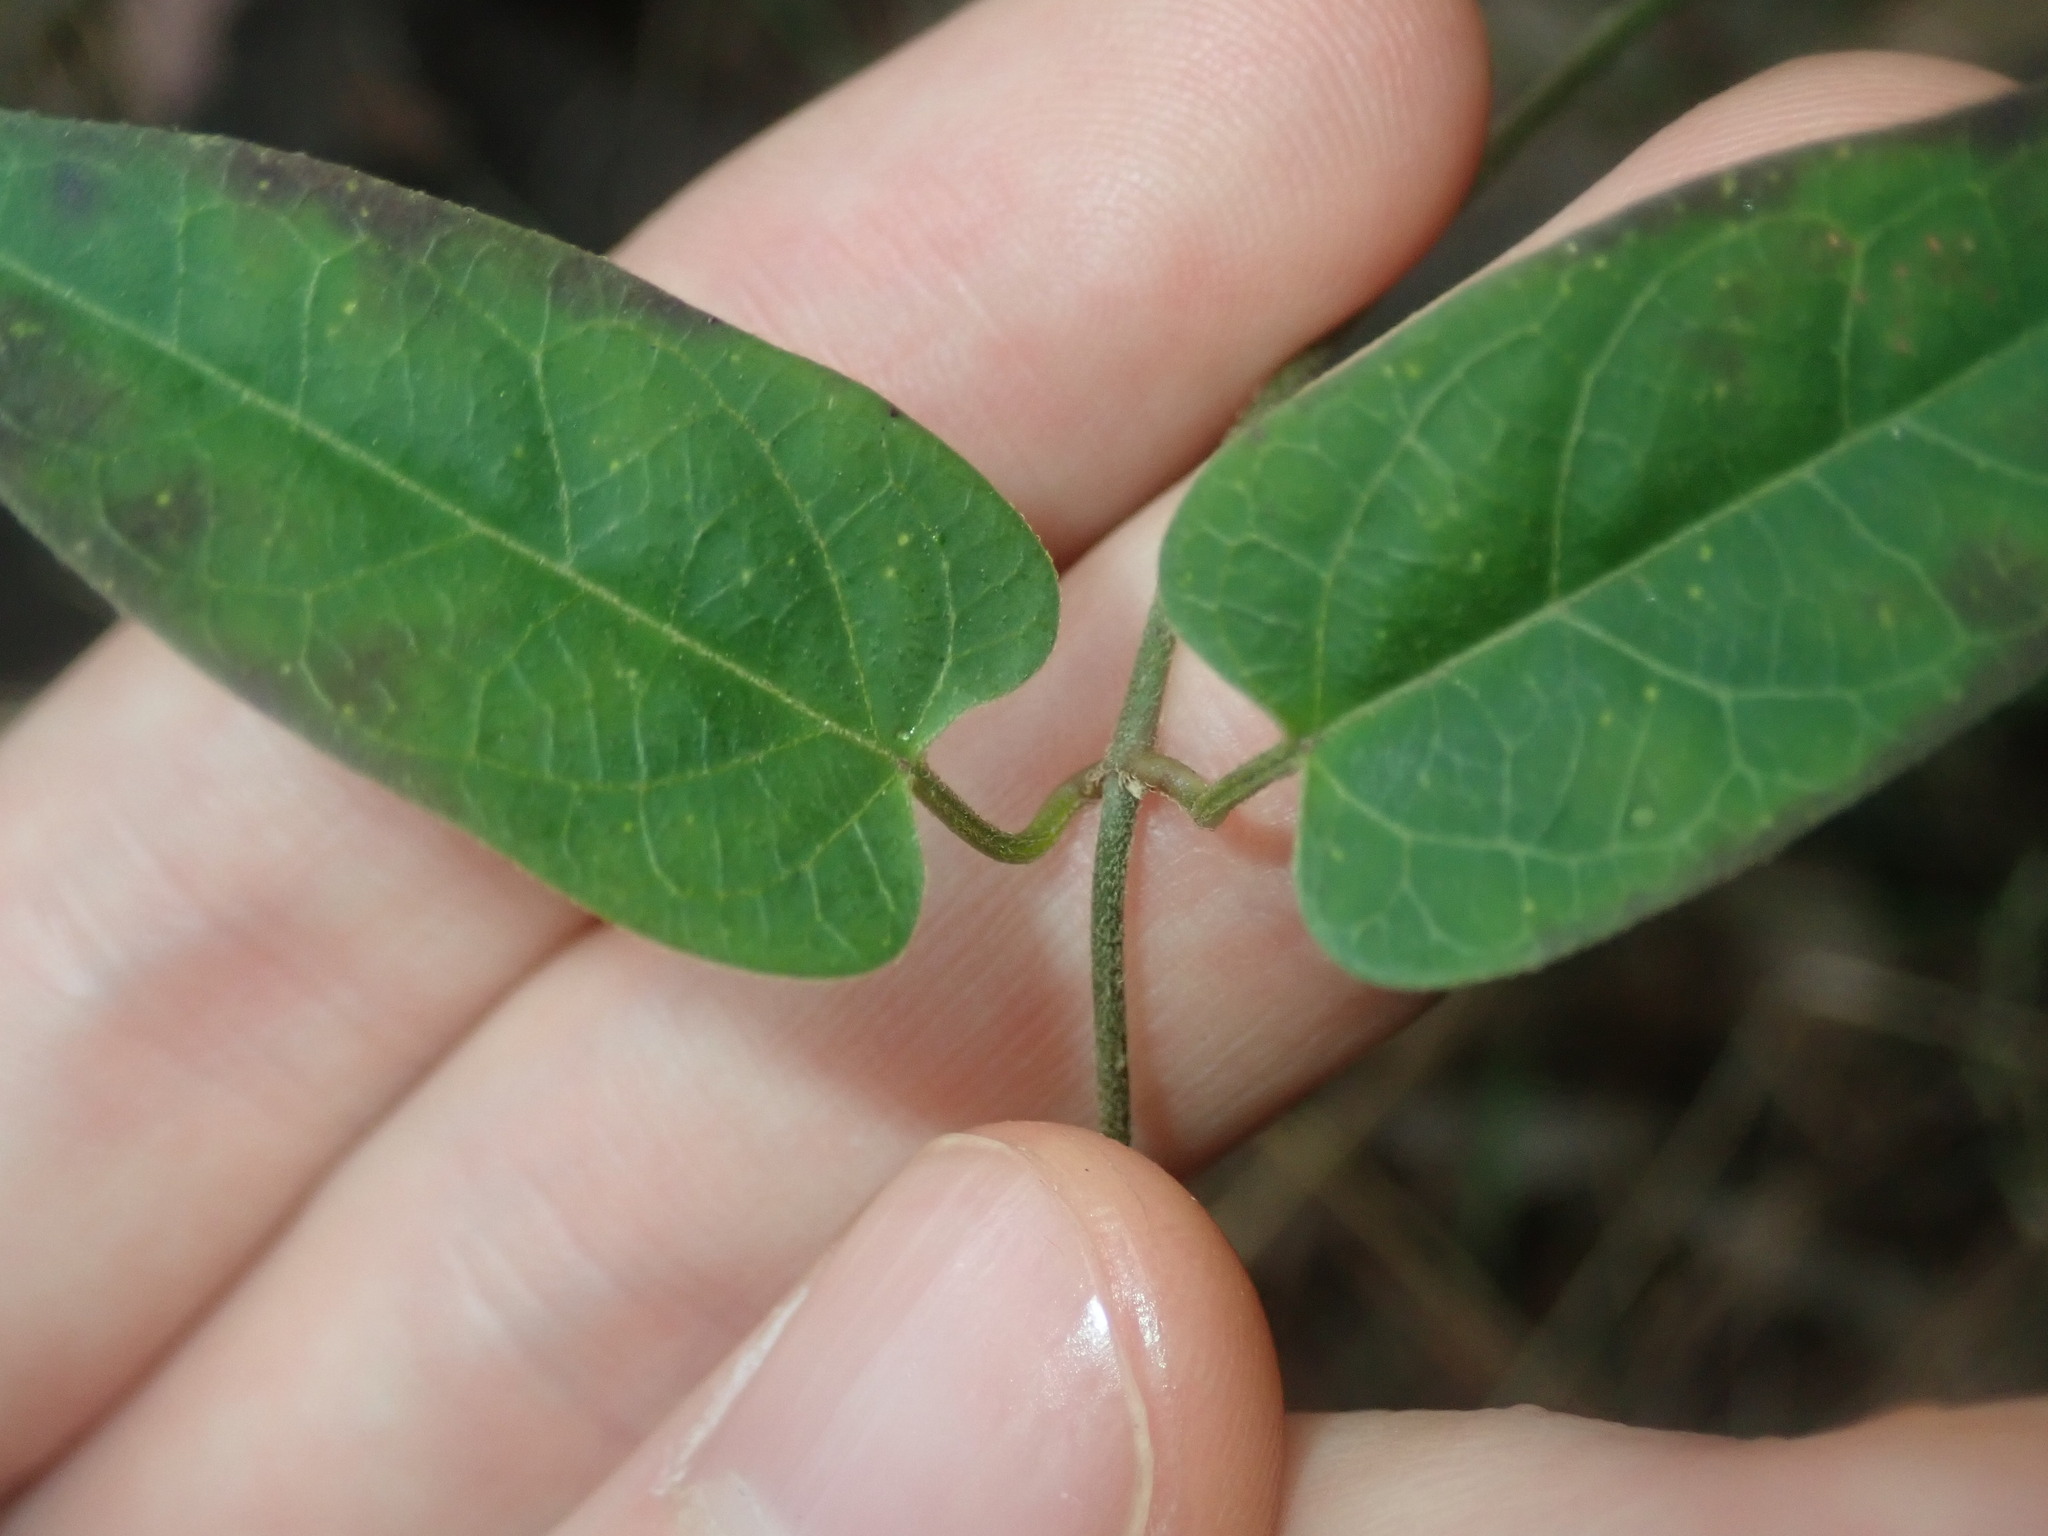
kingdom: Plantae
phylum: Tracheophyta
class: Magnoliopsida
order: Gentianales
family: Apocynaceae
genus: Vincetoxicum
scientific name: Vincetoxicum woollsii
